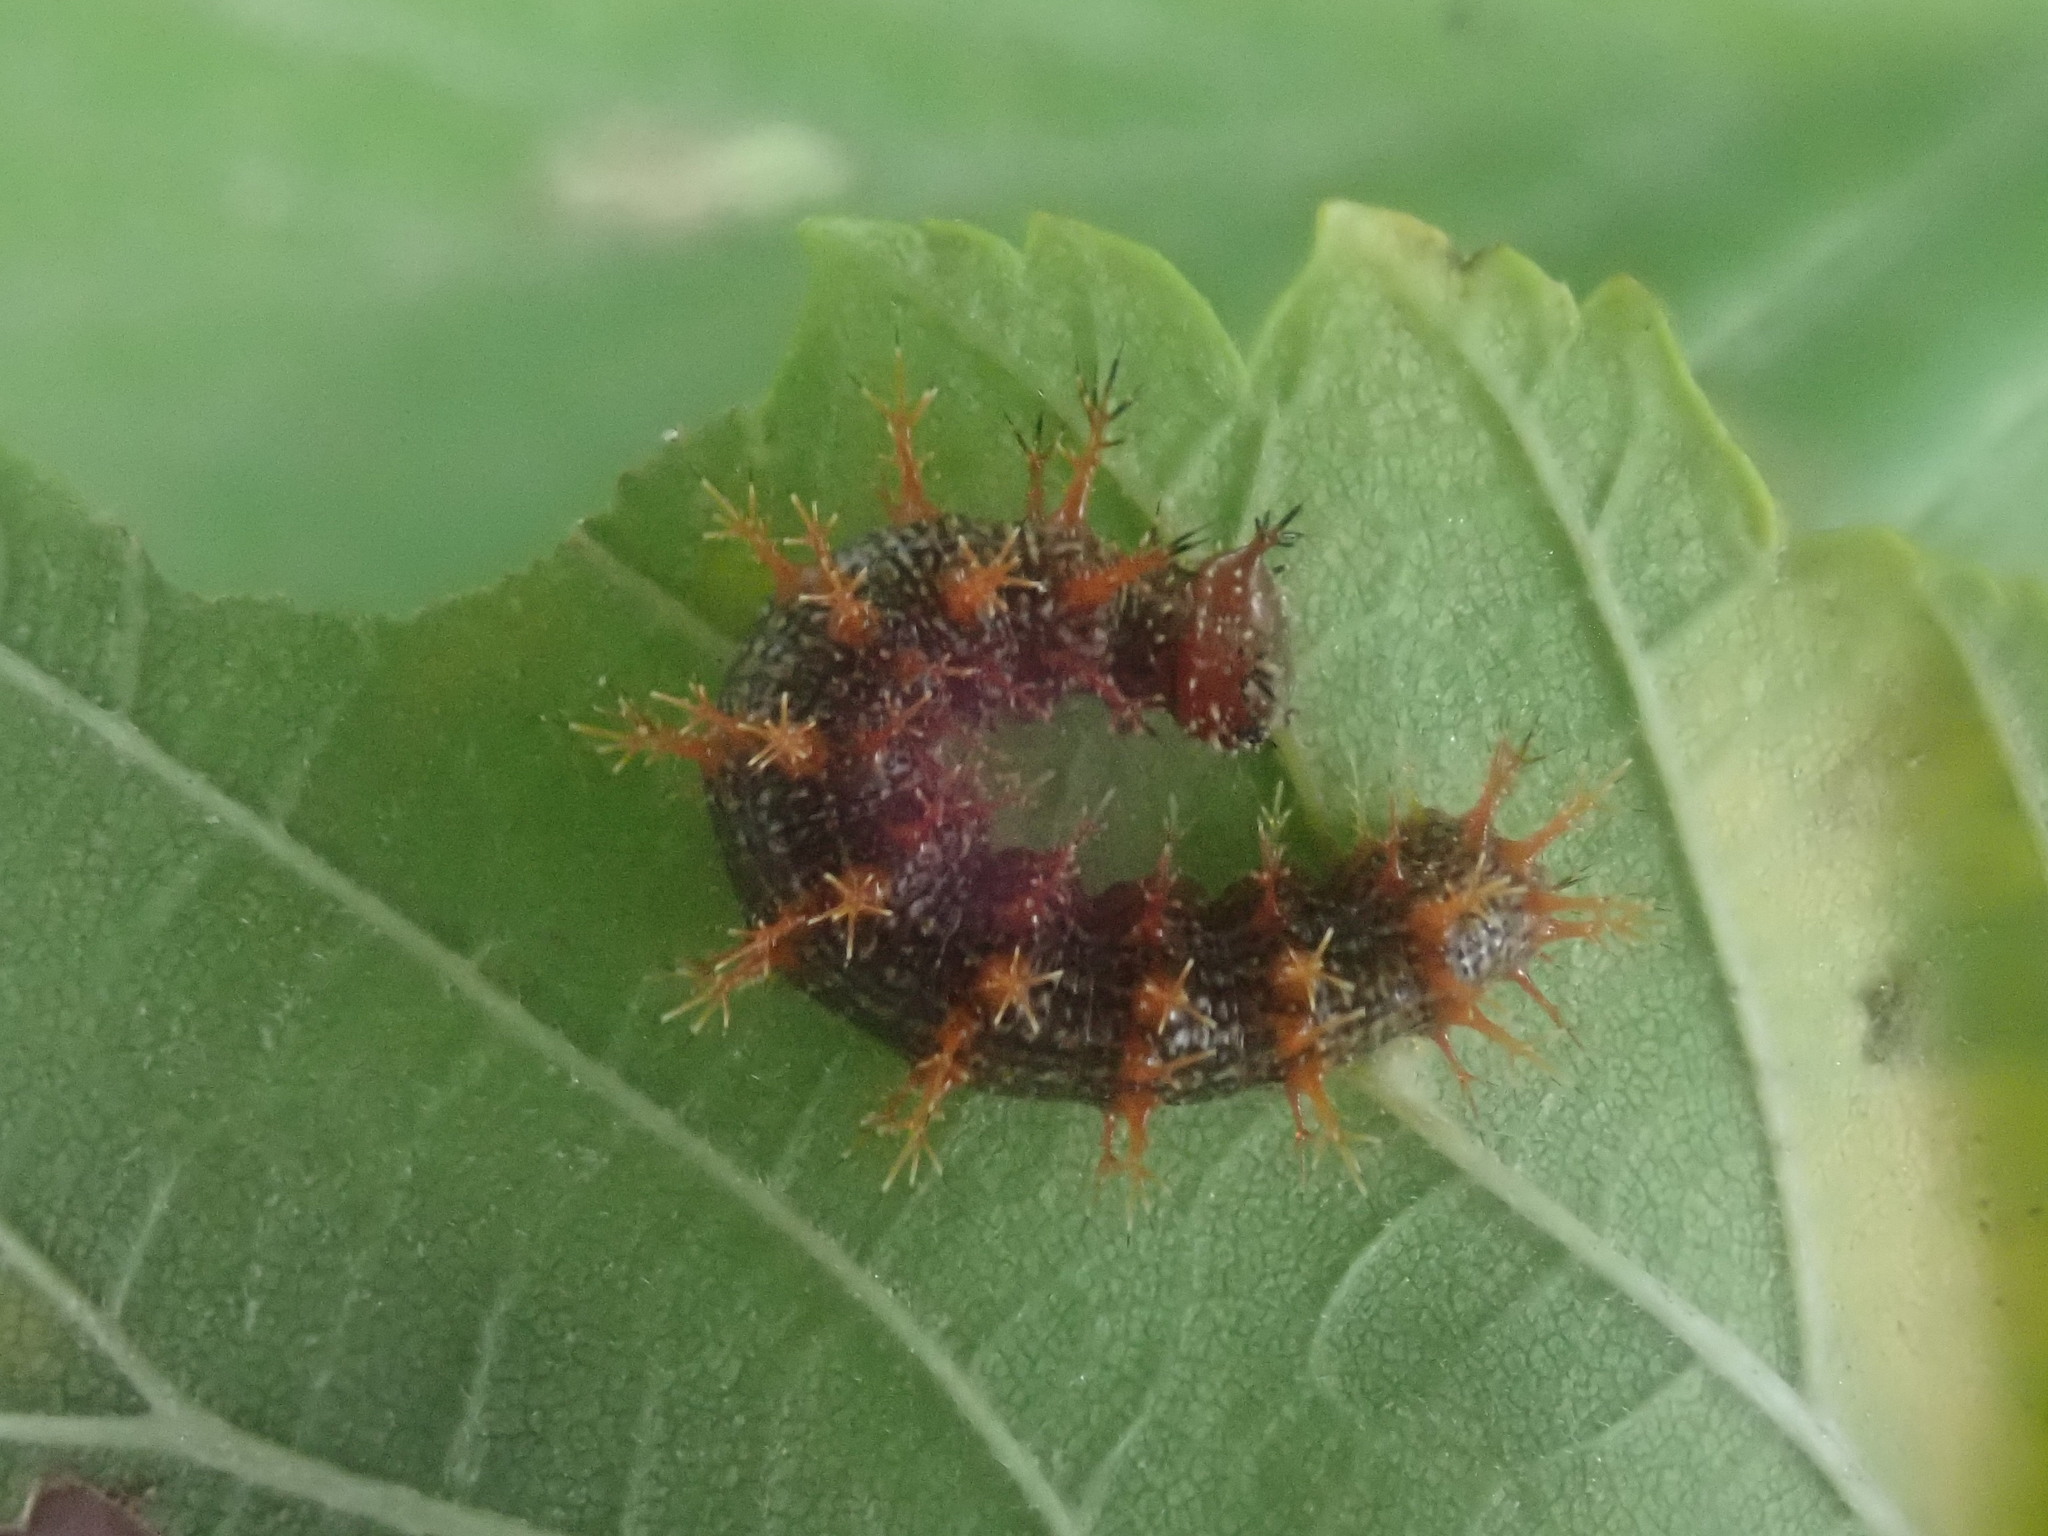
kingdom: Animalia
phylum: Arthropoda
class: Insecta
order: Lepidoptera
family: Nymphalidae
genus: Polygonia
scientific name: Polygonia interrogationis
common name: Question mark
